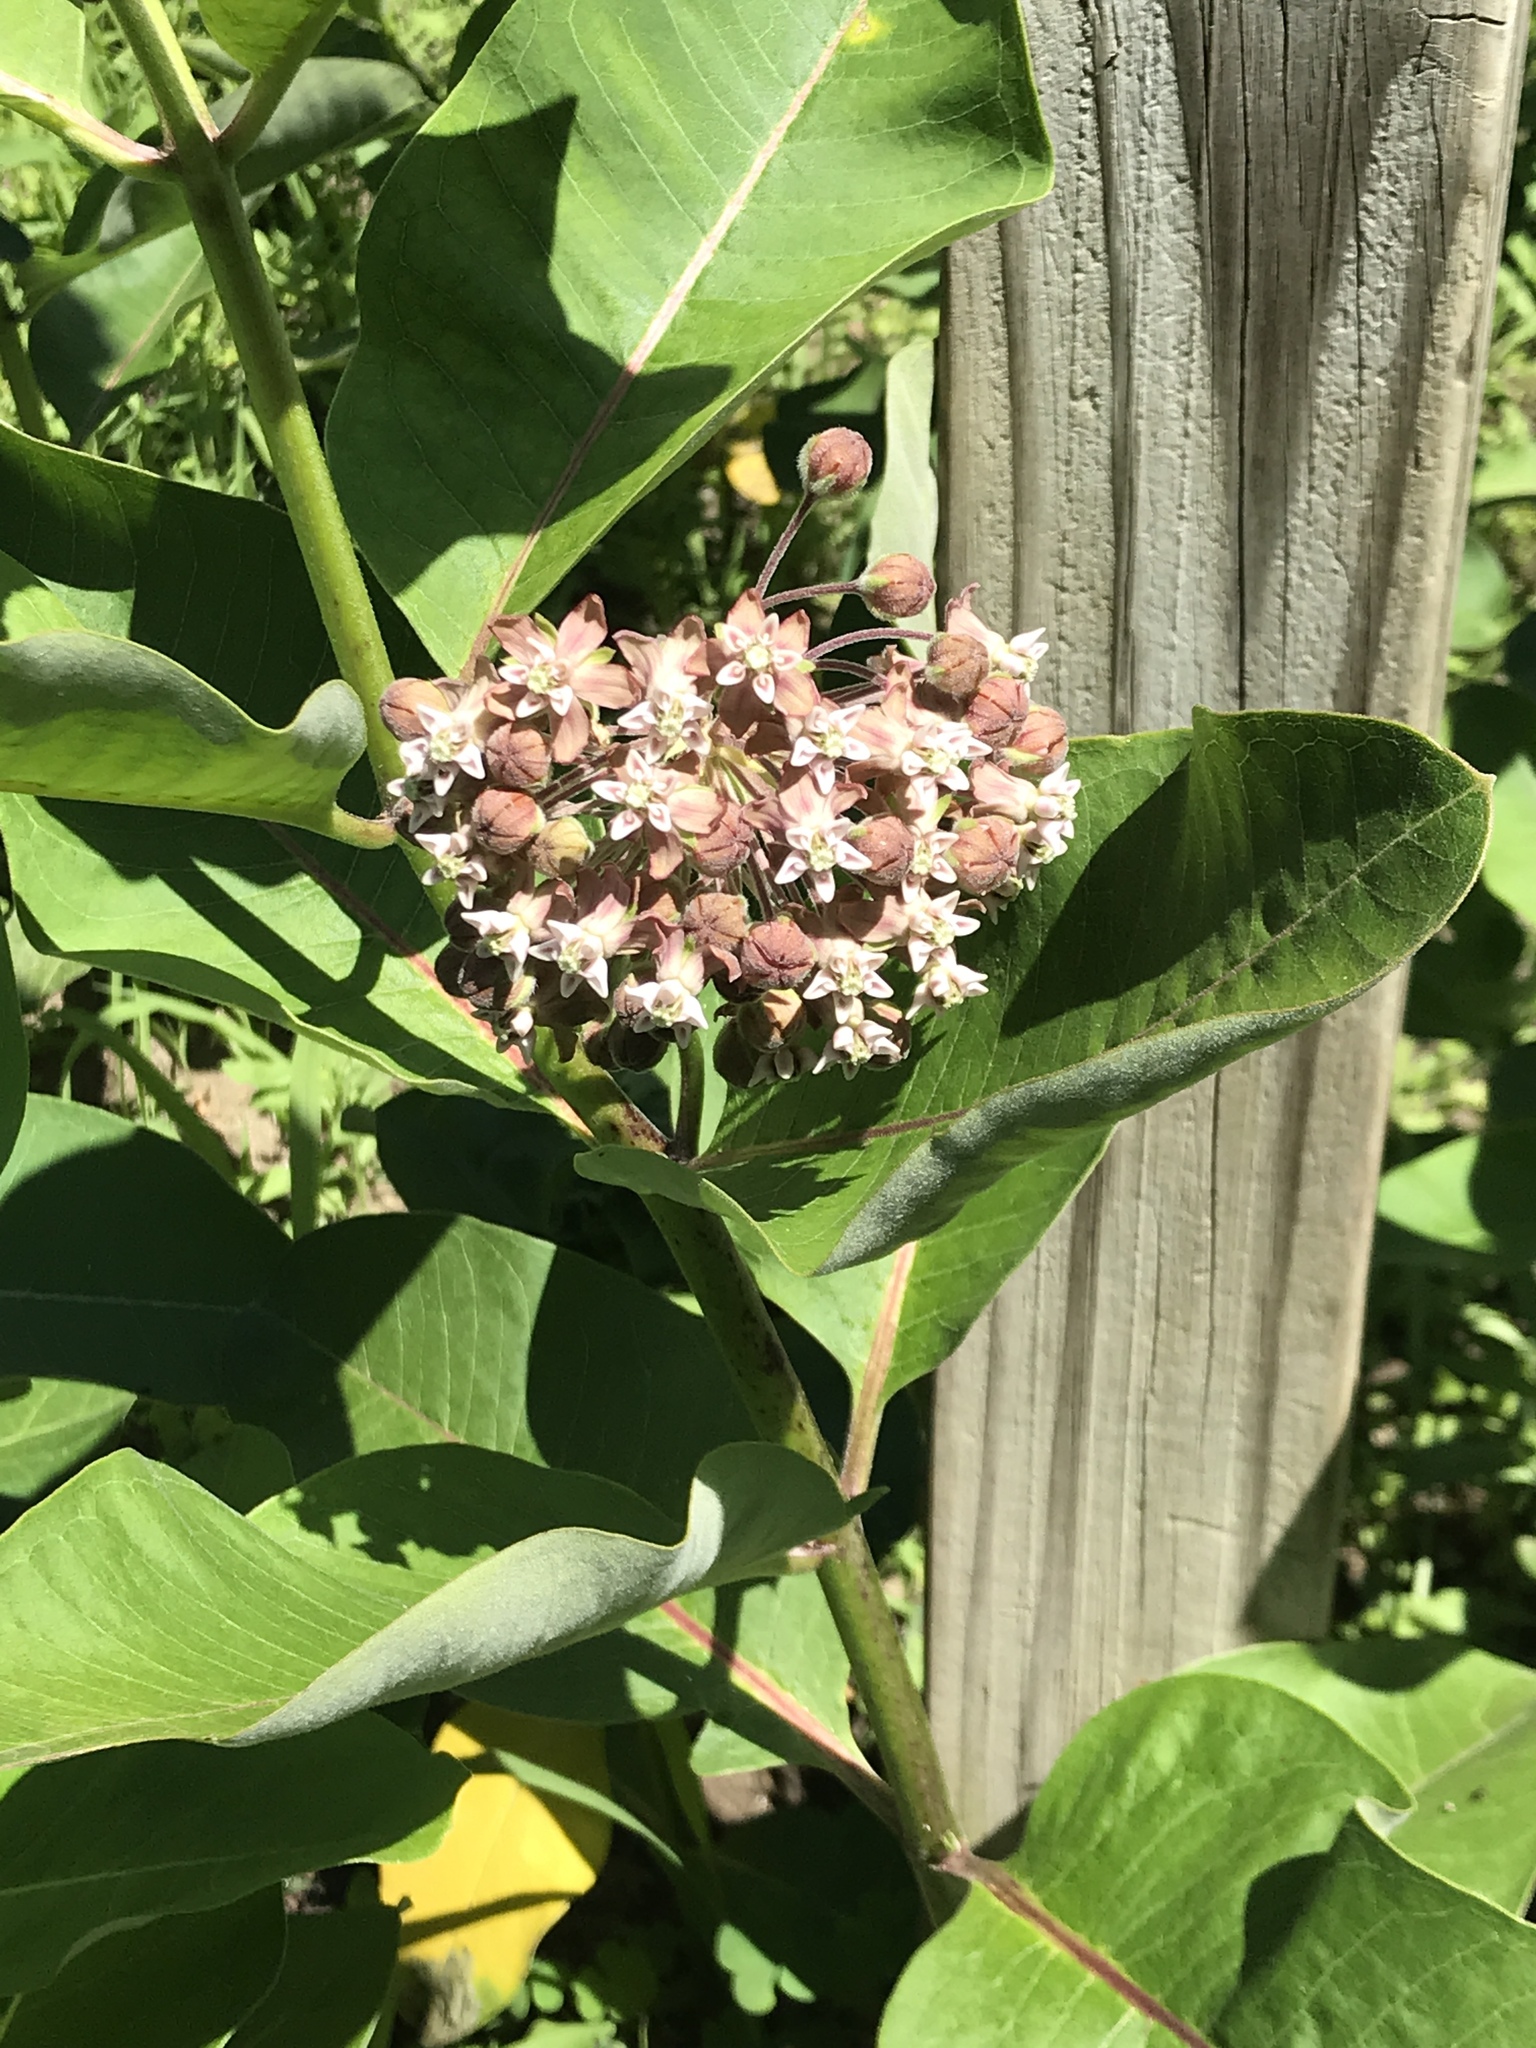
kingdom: Plantae
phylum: Tracheophyta
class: Magnoliopsida
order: Gentianales
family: Apocynaceae
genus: Asclepias
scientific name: Asclepias syriaca
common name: Common milkweed
